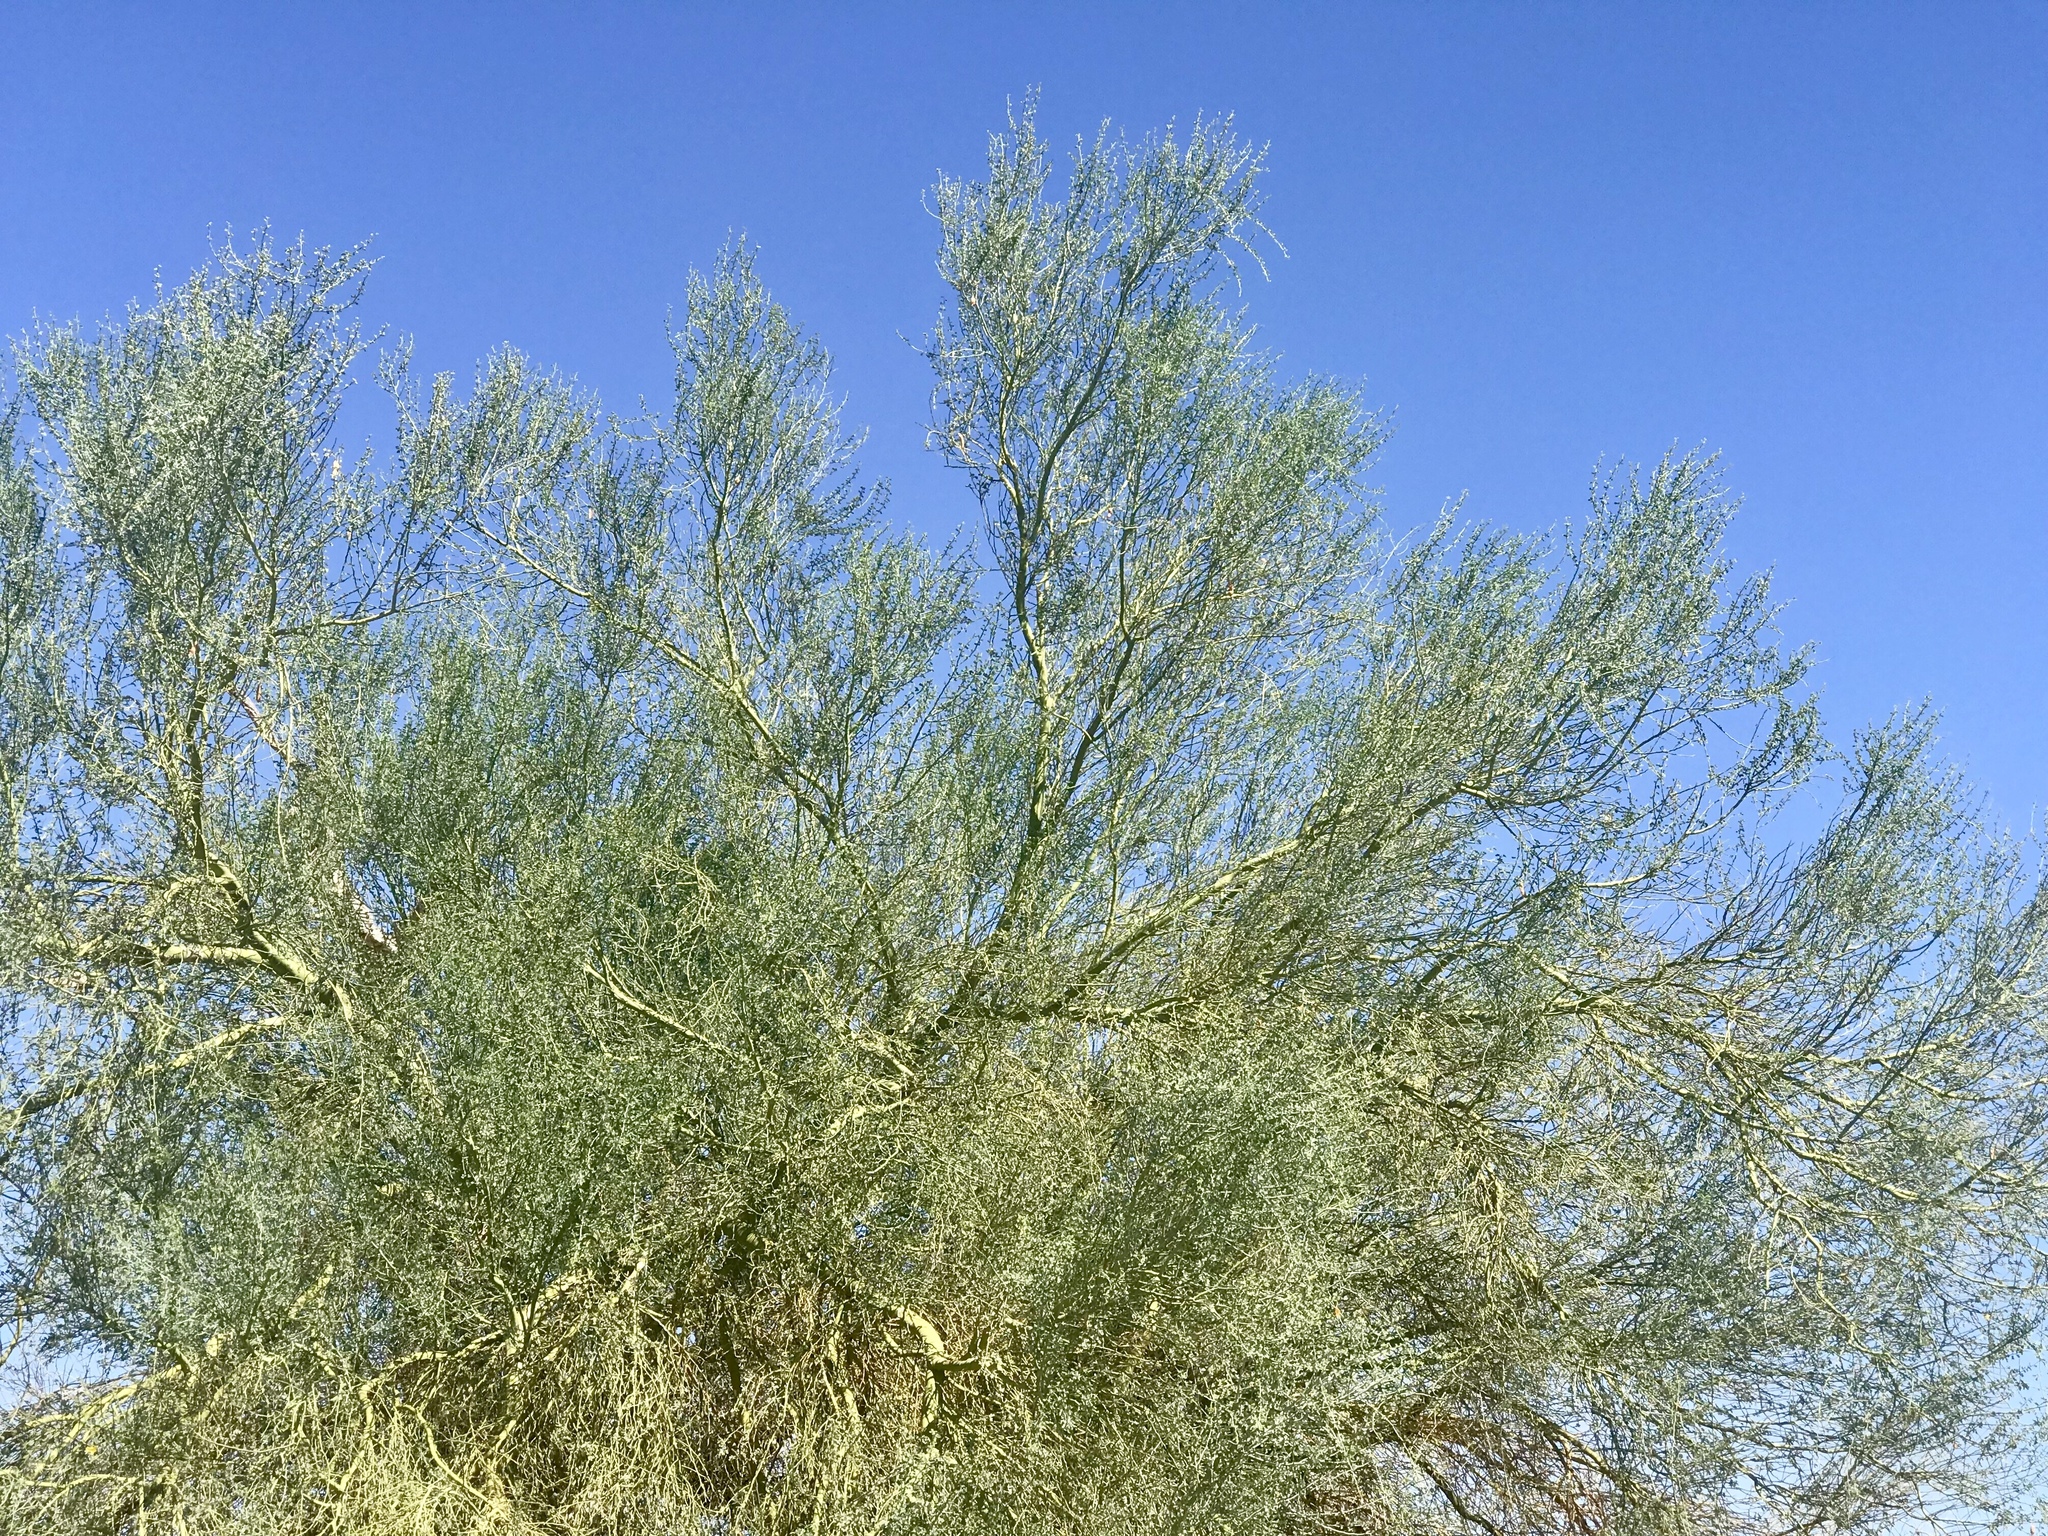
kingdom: Plantae
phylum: Tracheophyta
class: Magnoliopsida
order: Fabales
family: Fabaceae
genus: Parkinsonia
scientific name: Parkinsonia florida
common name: Blue paloverde
